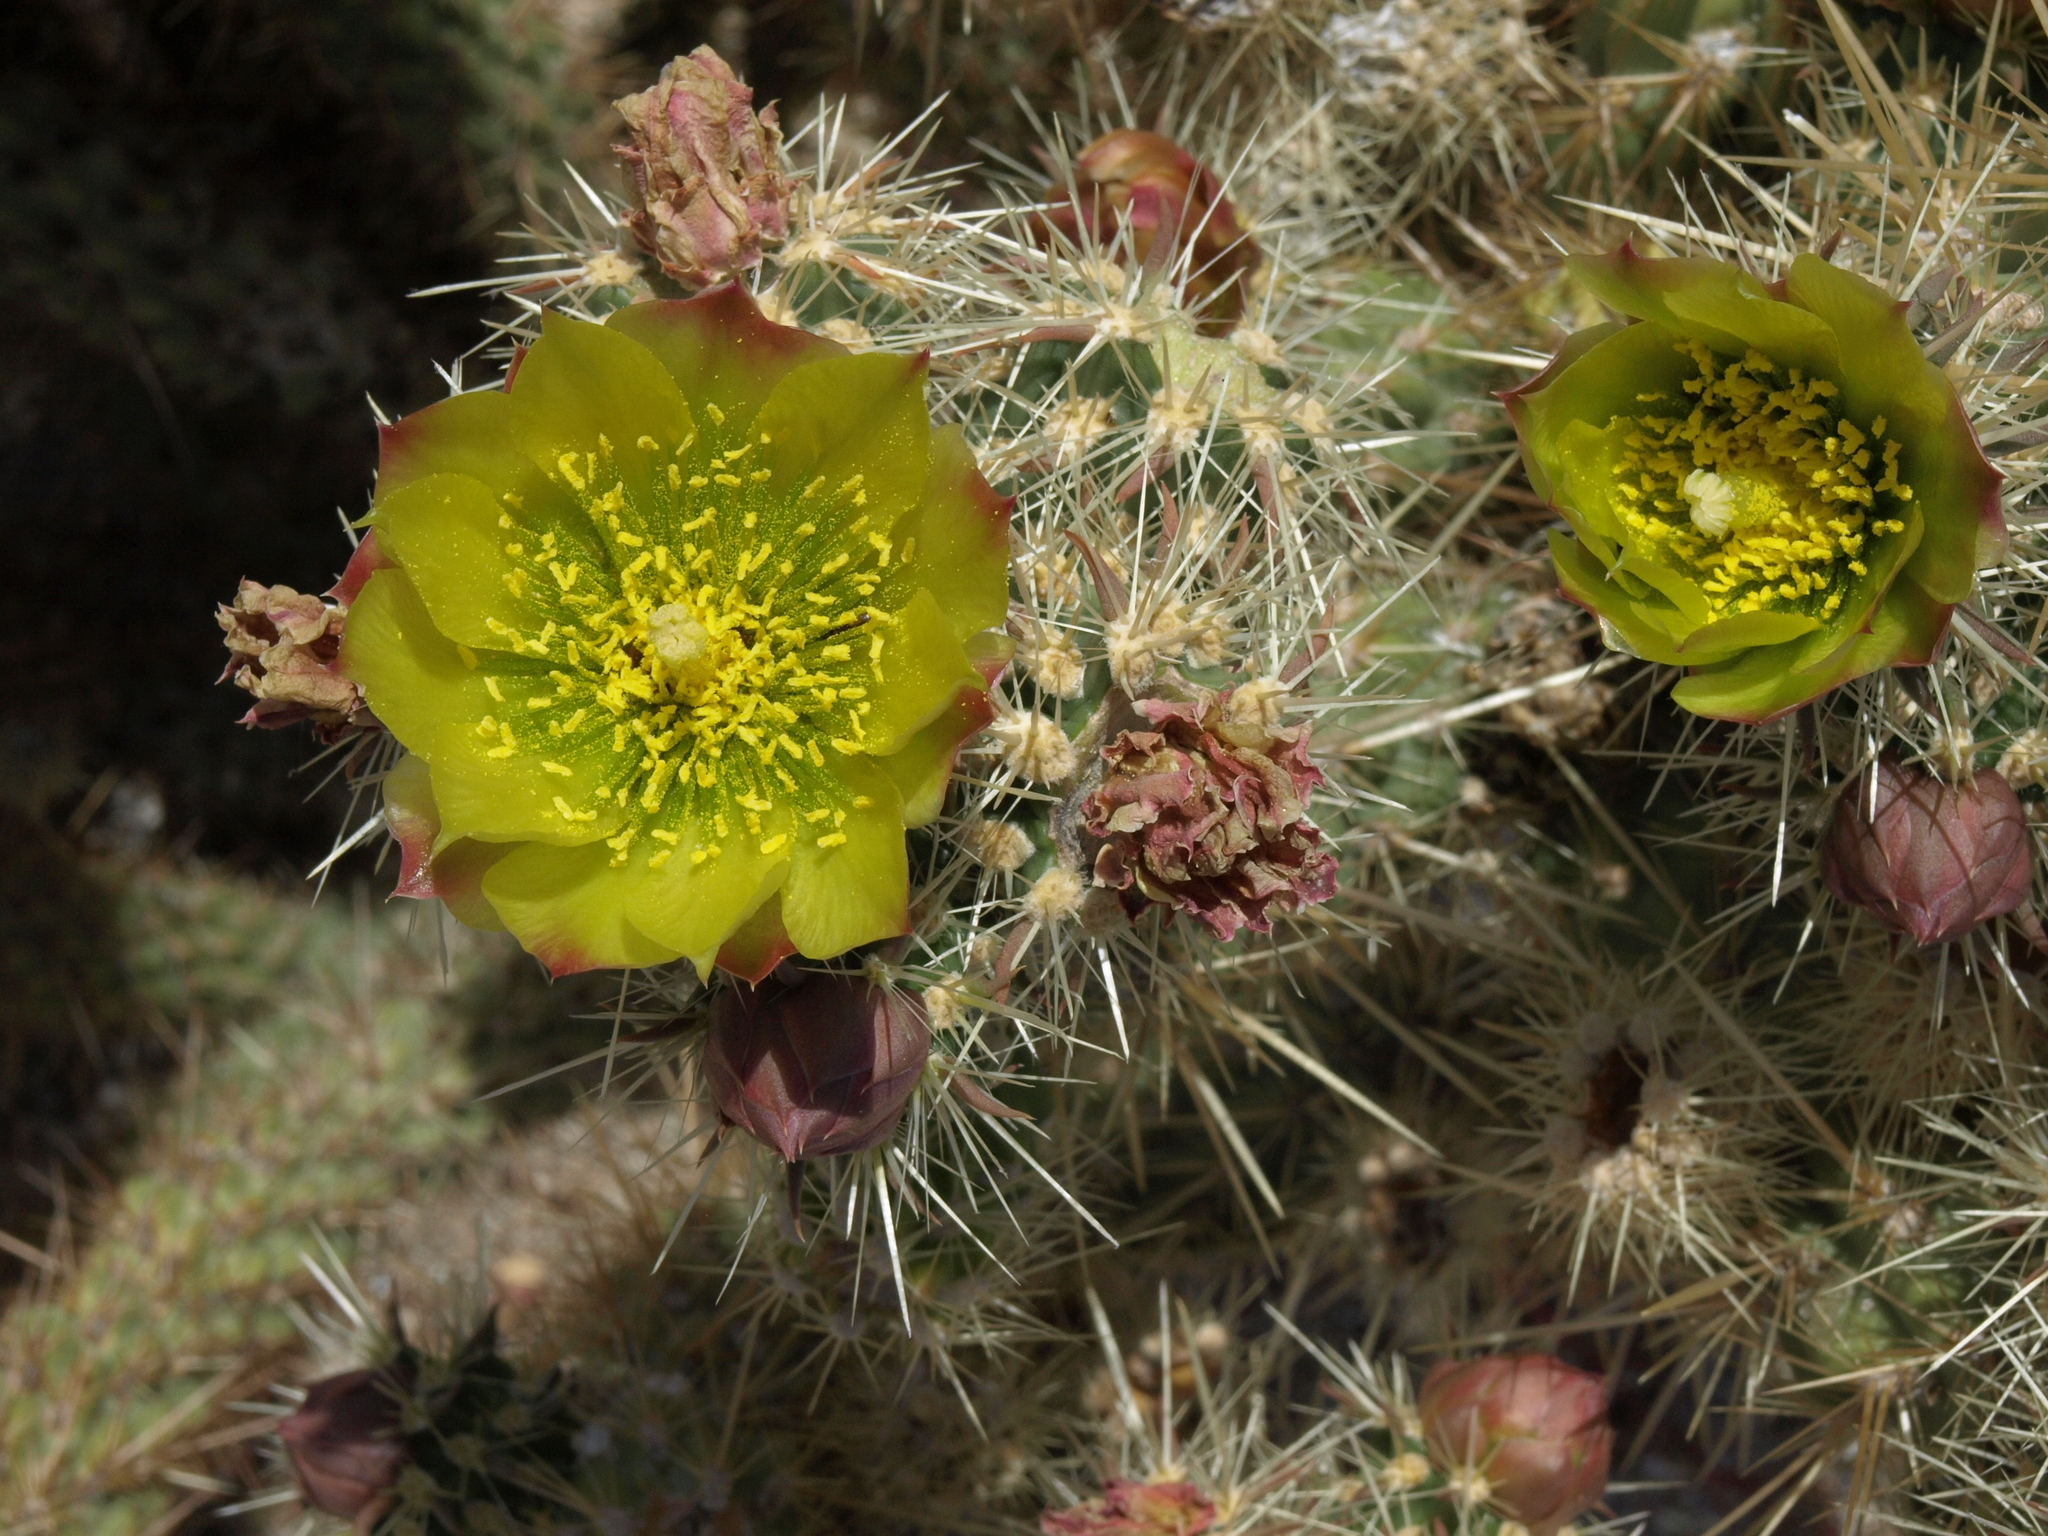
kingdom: Plantae
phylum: Tracheophyta
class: Magnoliopsida
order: Caryophyllales
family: Cactaceae
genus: Cylindropuntia
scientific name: Cylindropuntia bernardina
